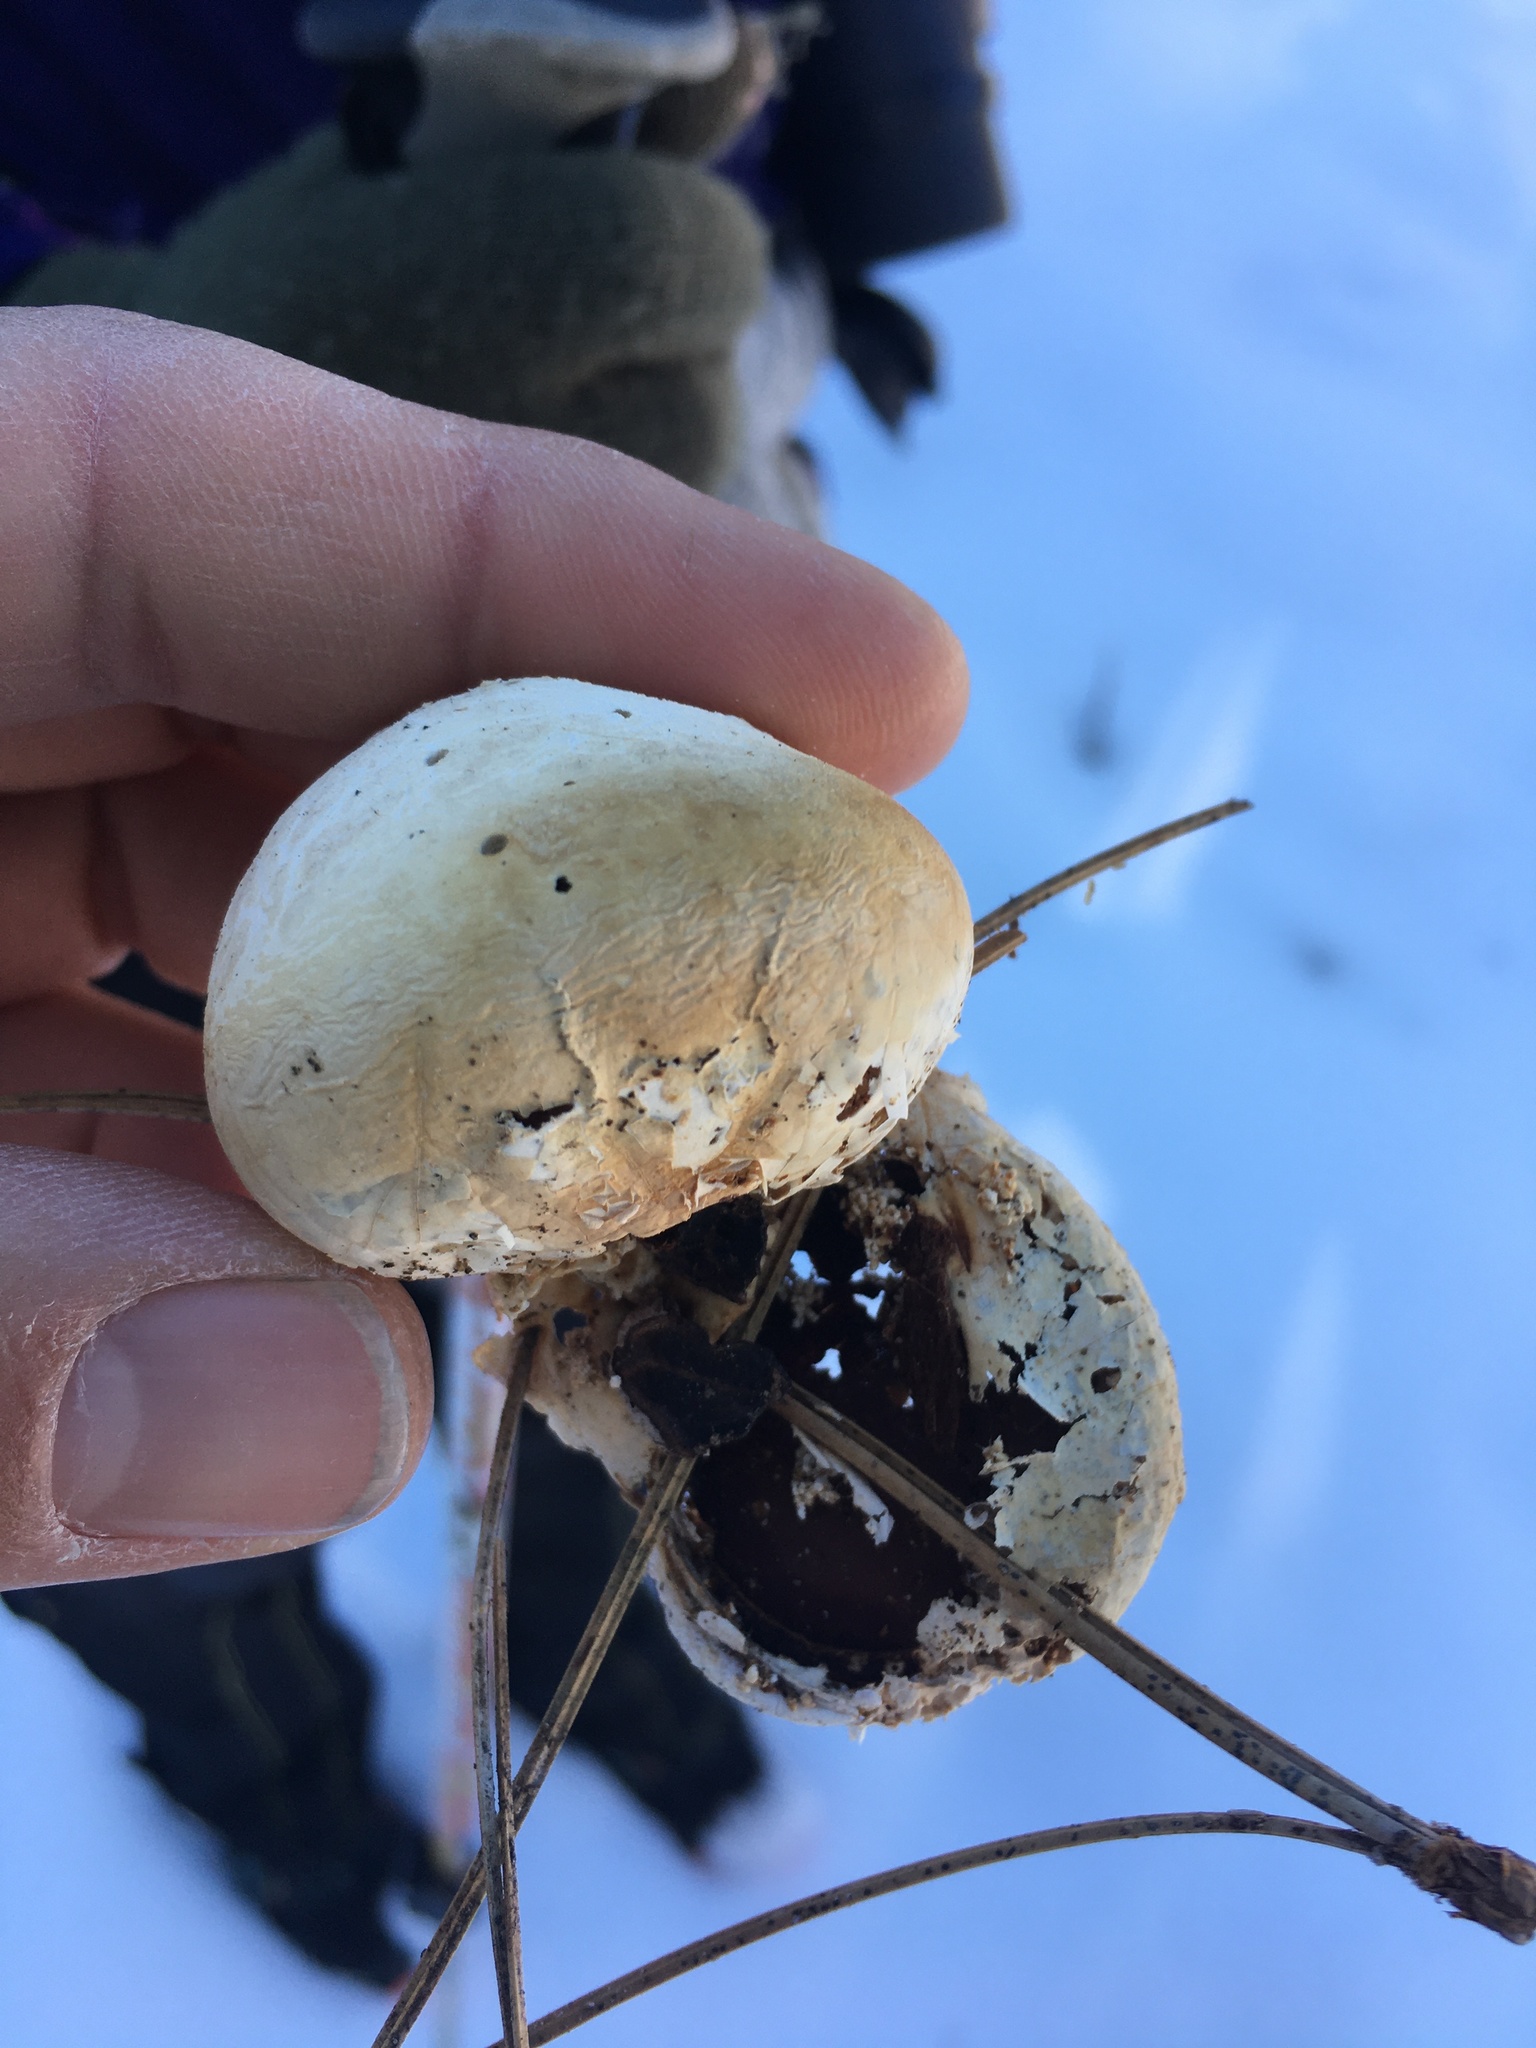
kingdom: Fungi
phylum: Basidiomycota
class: Agaricomycetes
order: Polyporales
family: Polyporaceae
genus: Cryptoporus
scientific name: Cryptoporus volvatus
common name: Veiled polypore
